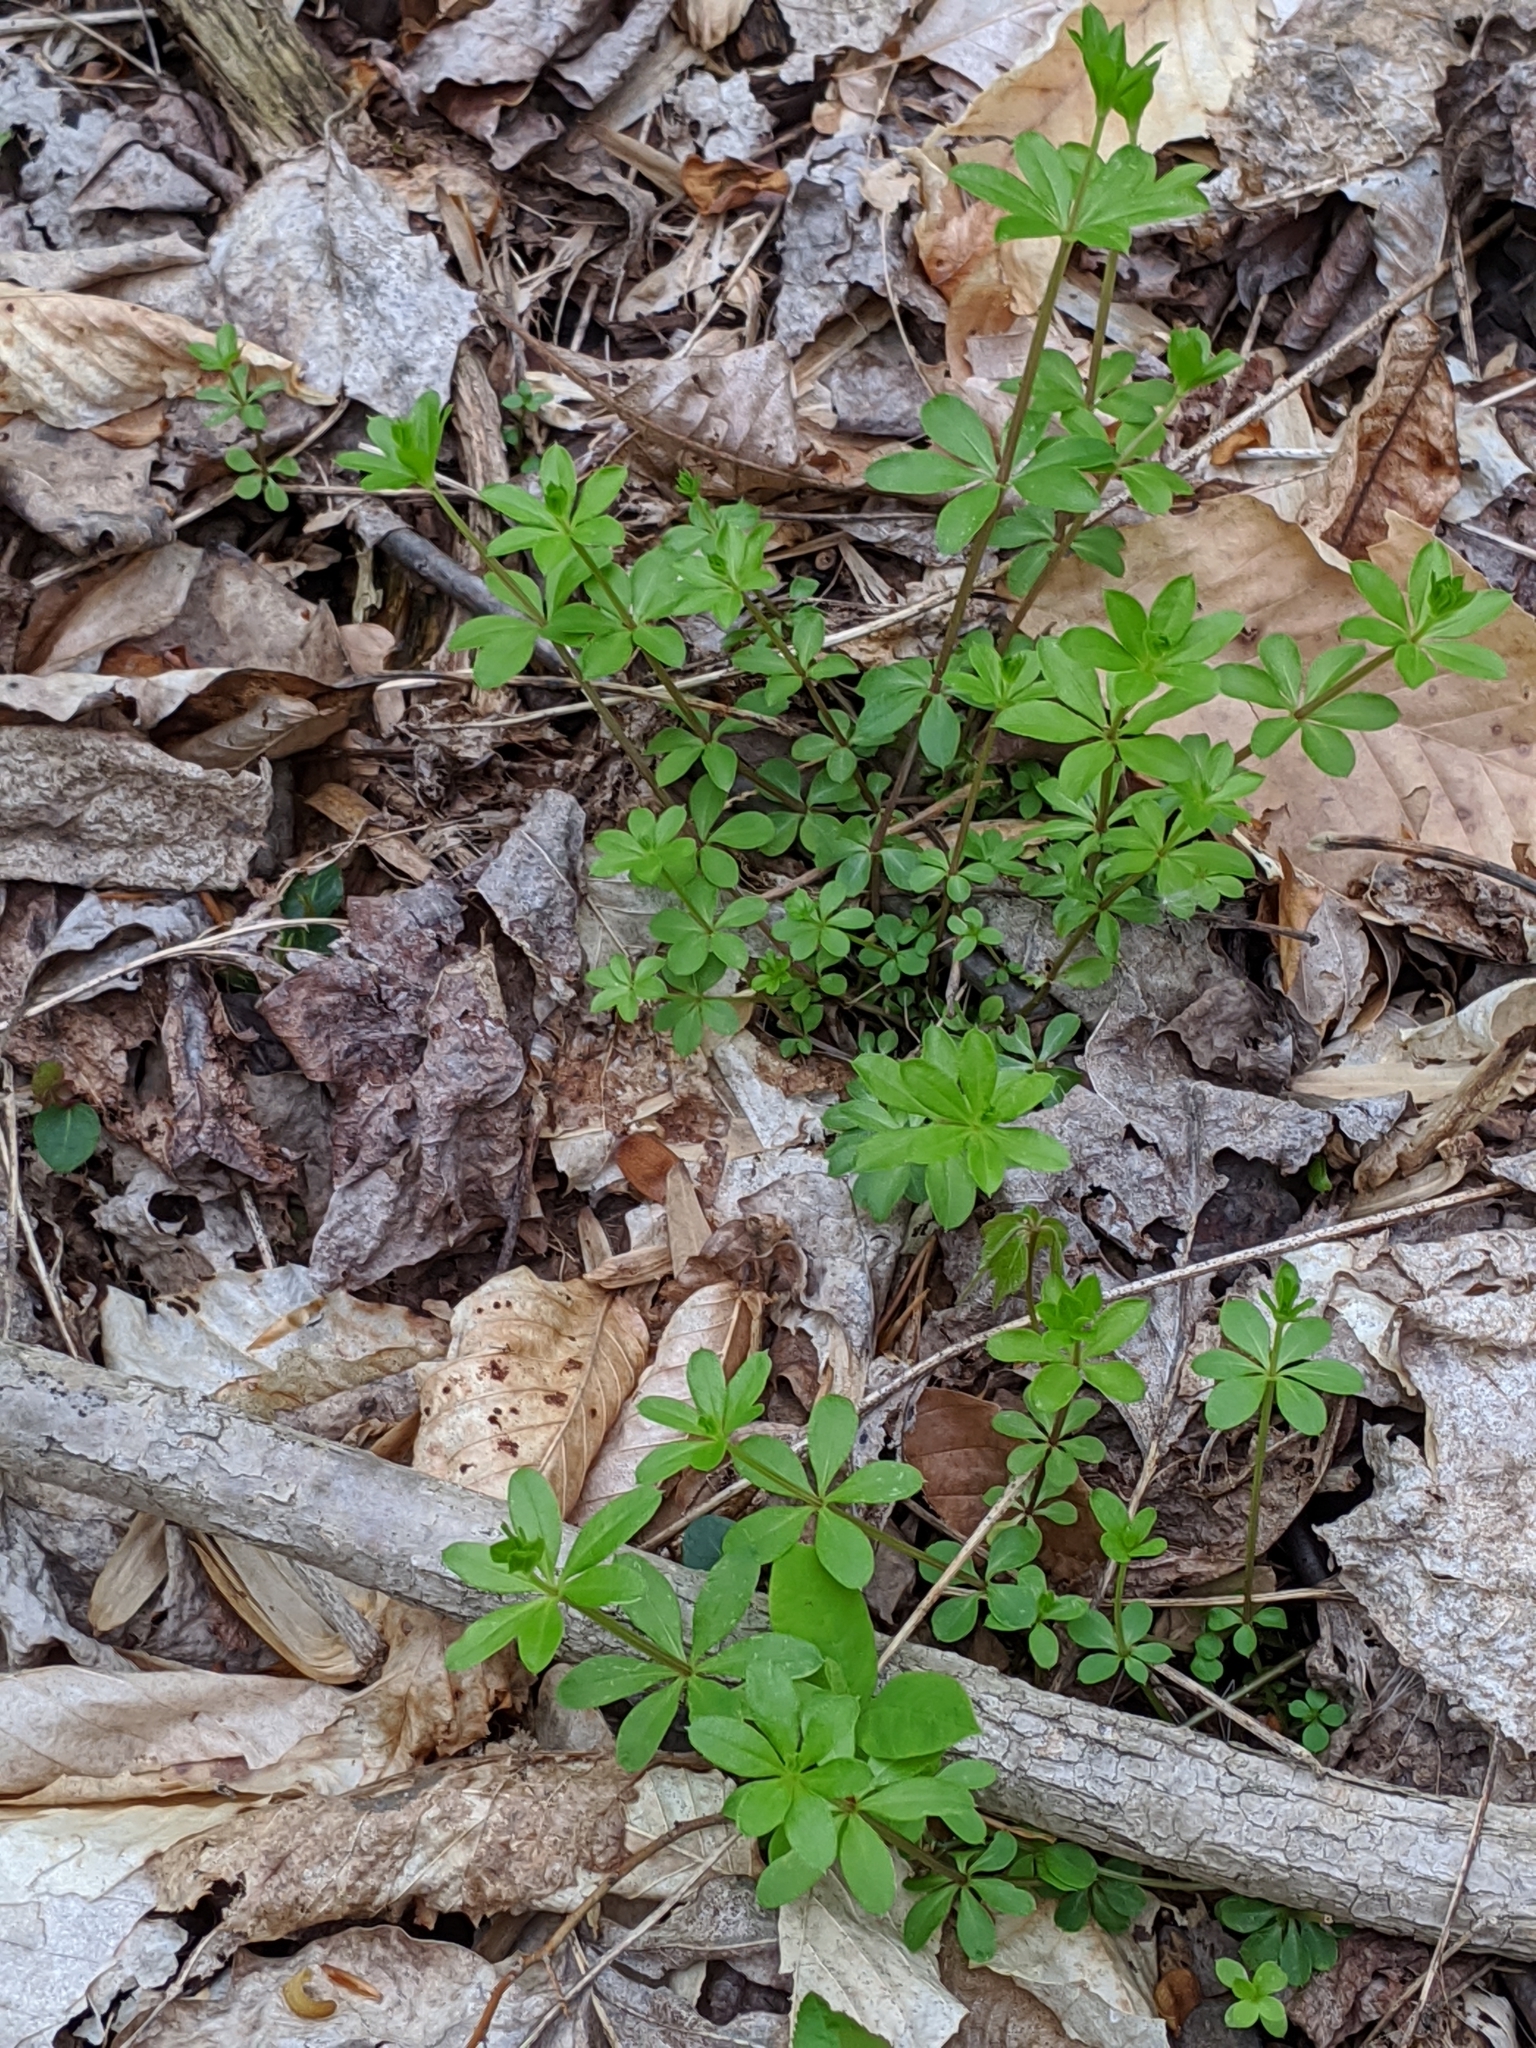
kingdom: Plantae
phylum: Tracheophyta
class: Magnoliopsida
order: Gentianales
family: Rubiaceae
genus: Galium
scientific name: Galium triflorum
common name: Fragrant bedstraw
